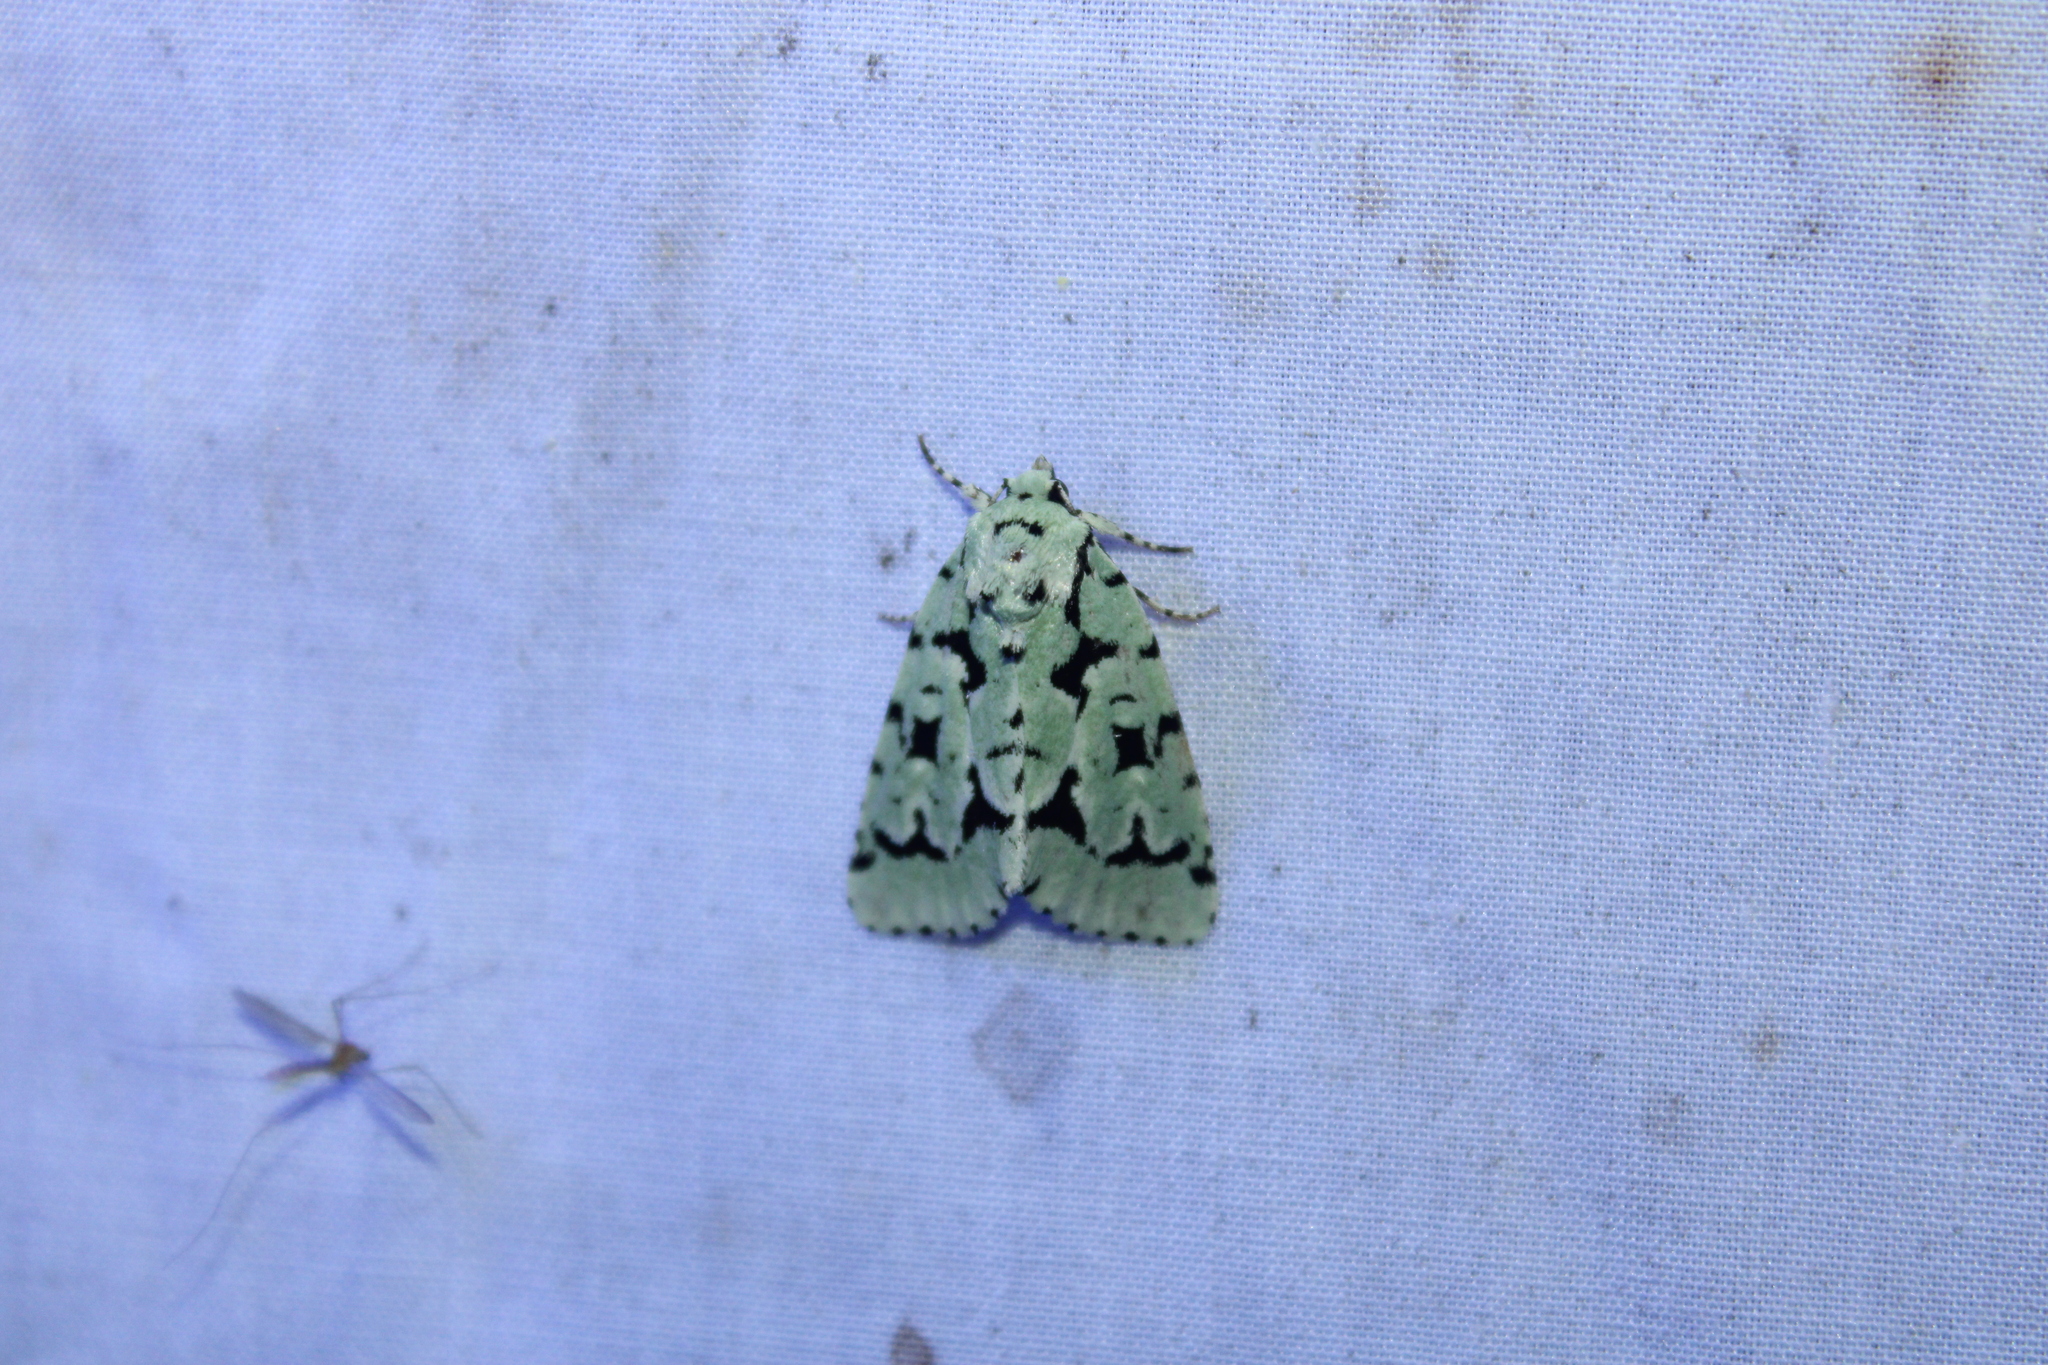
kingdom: Animalia
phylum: Arthropoda
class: Insecta
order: Lepidoptera
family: Noctuidae
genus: Acronicta
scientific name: Acronicta fallax
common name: Green marvel
